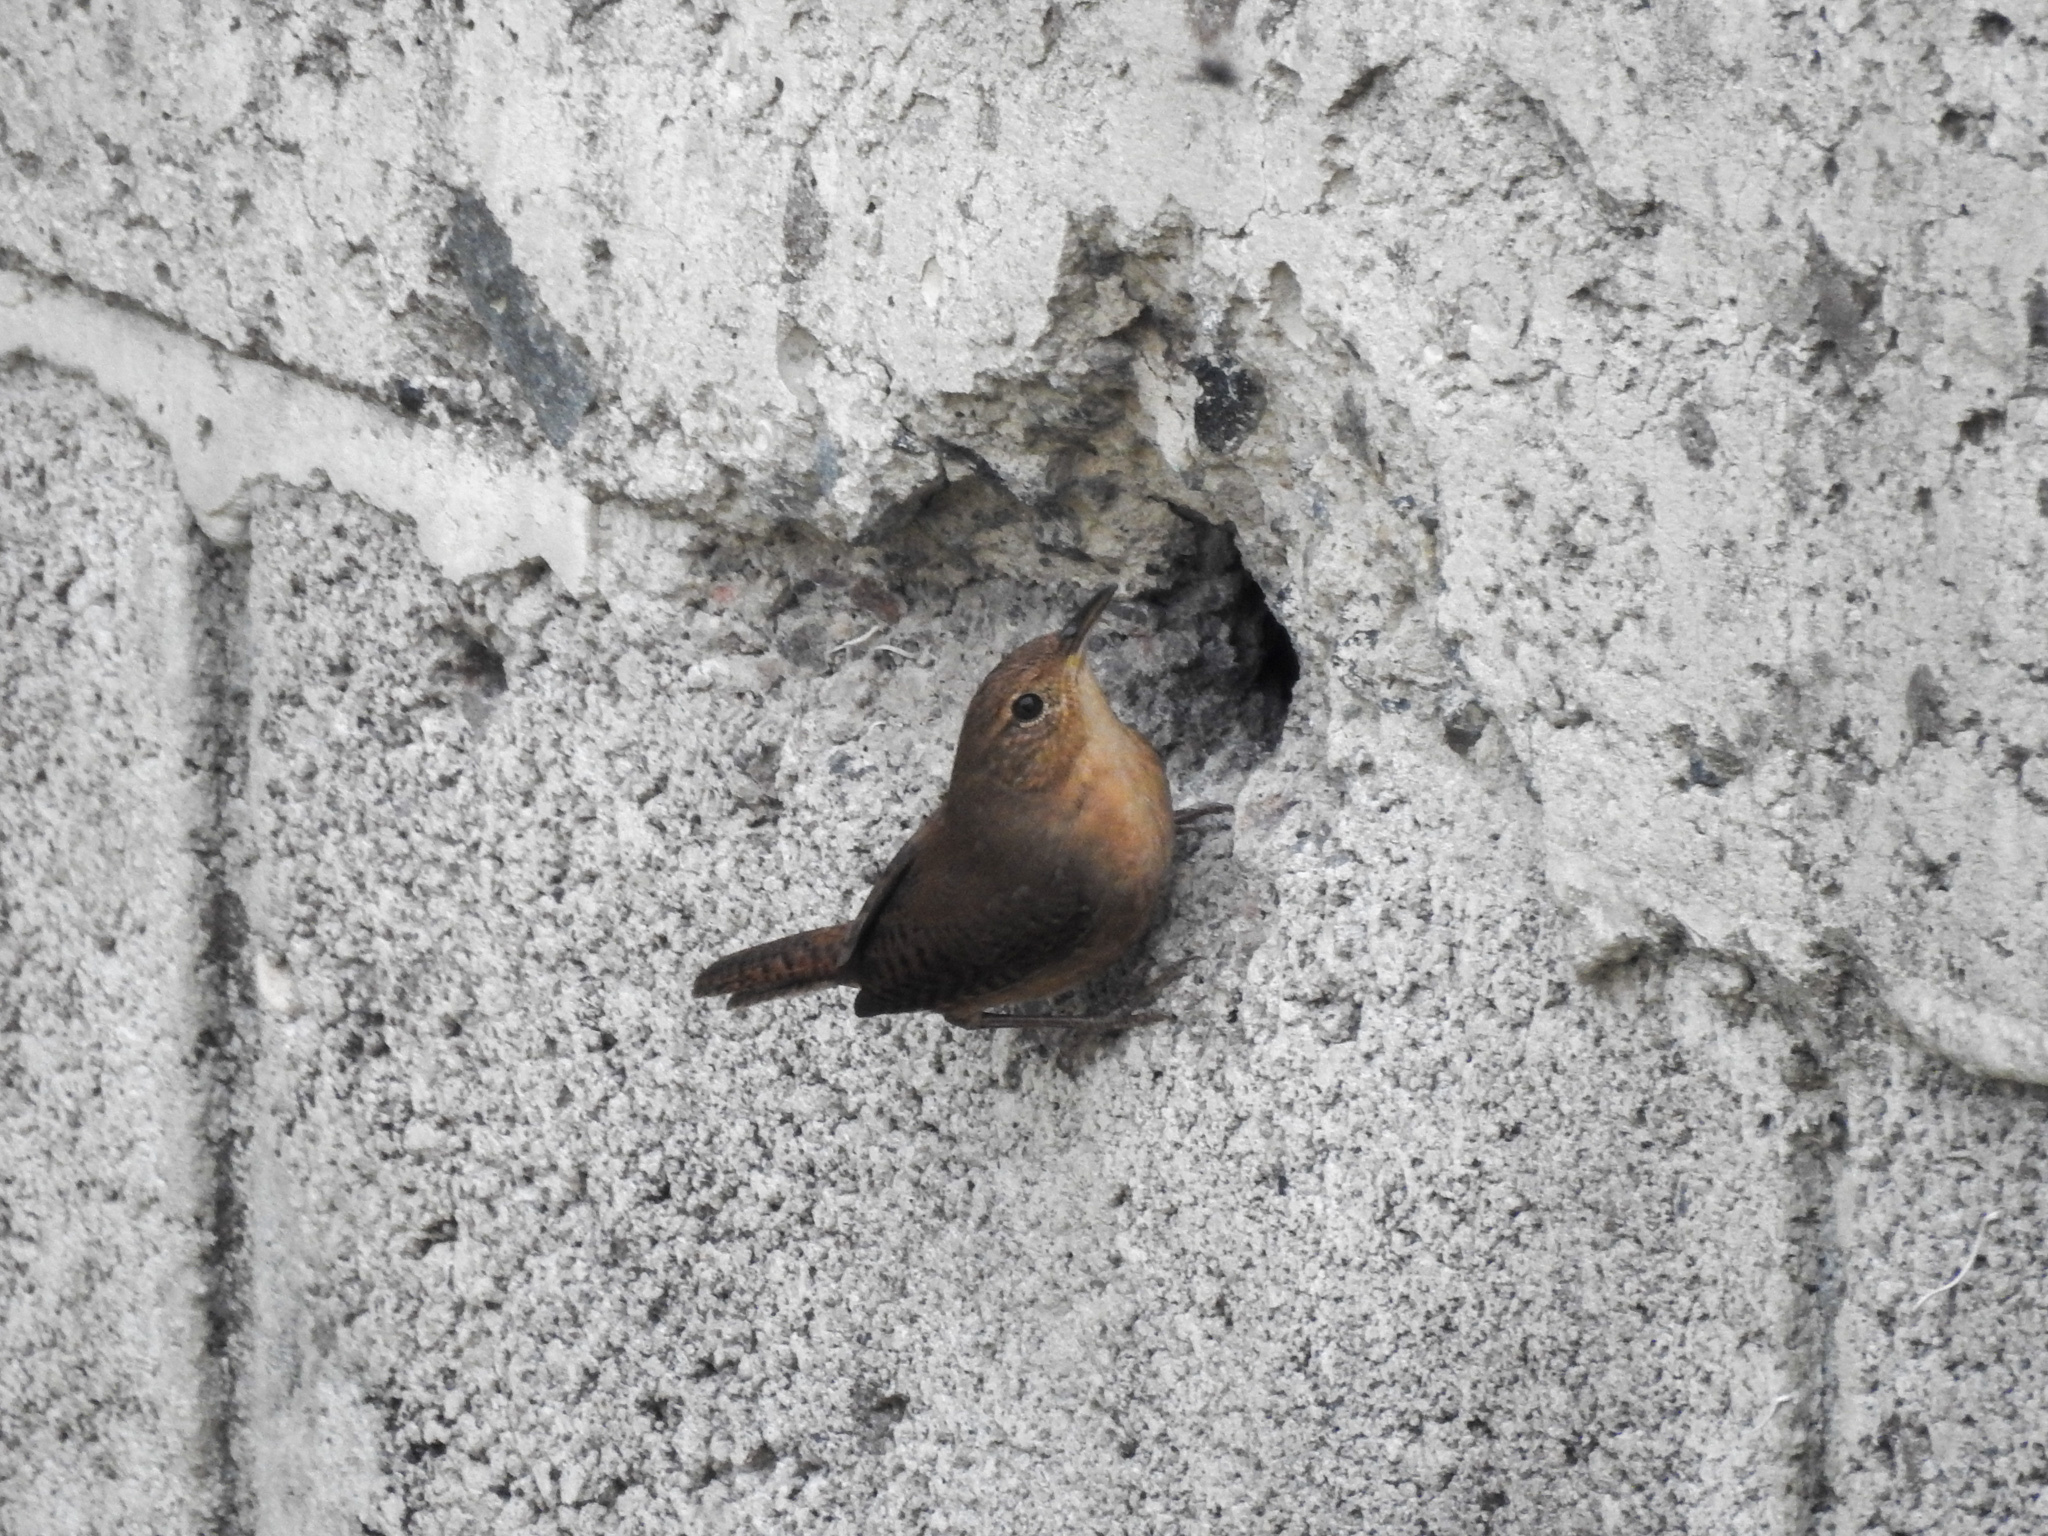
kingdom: Animalia
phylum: Chordata
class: Aves
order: Passeriformes
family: Troglodytidae
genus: Troglodytes
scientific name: Troglodytes aedon
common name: House wren
